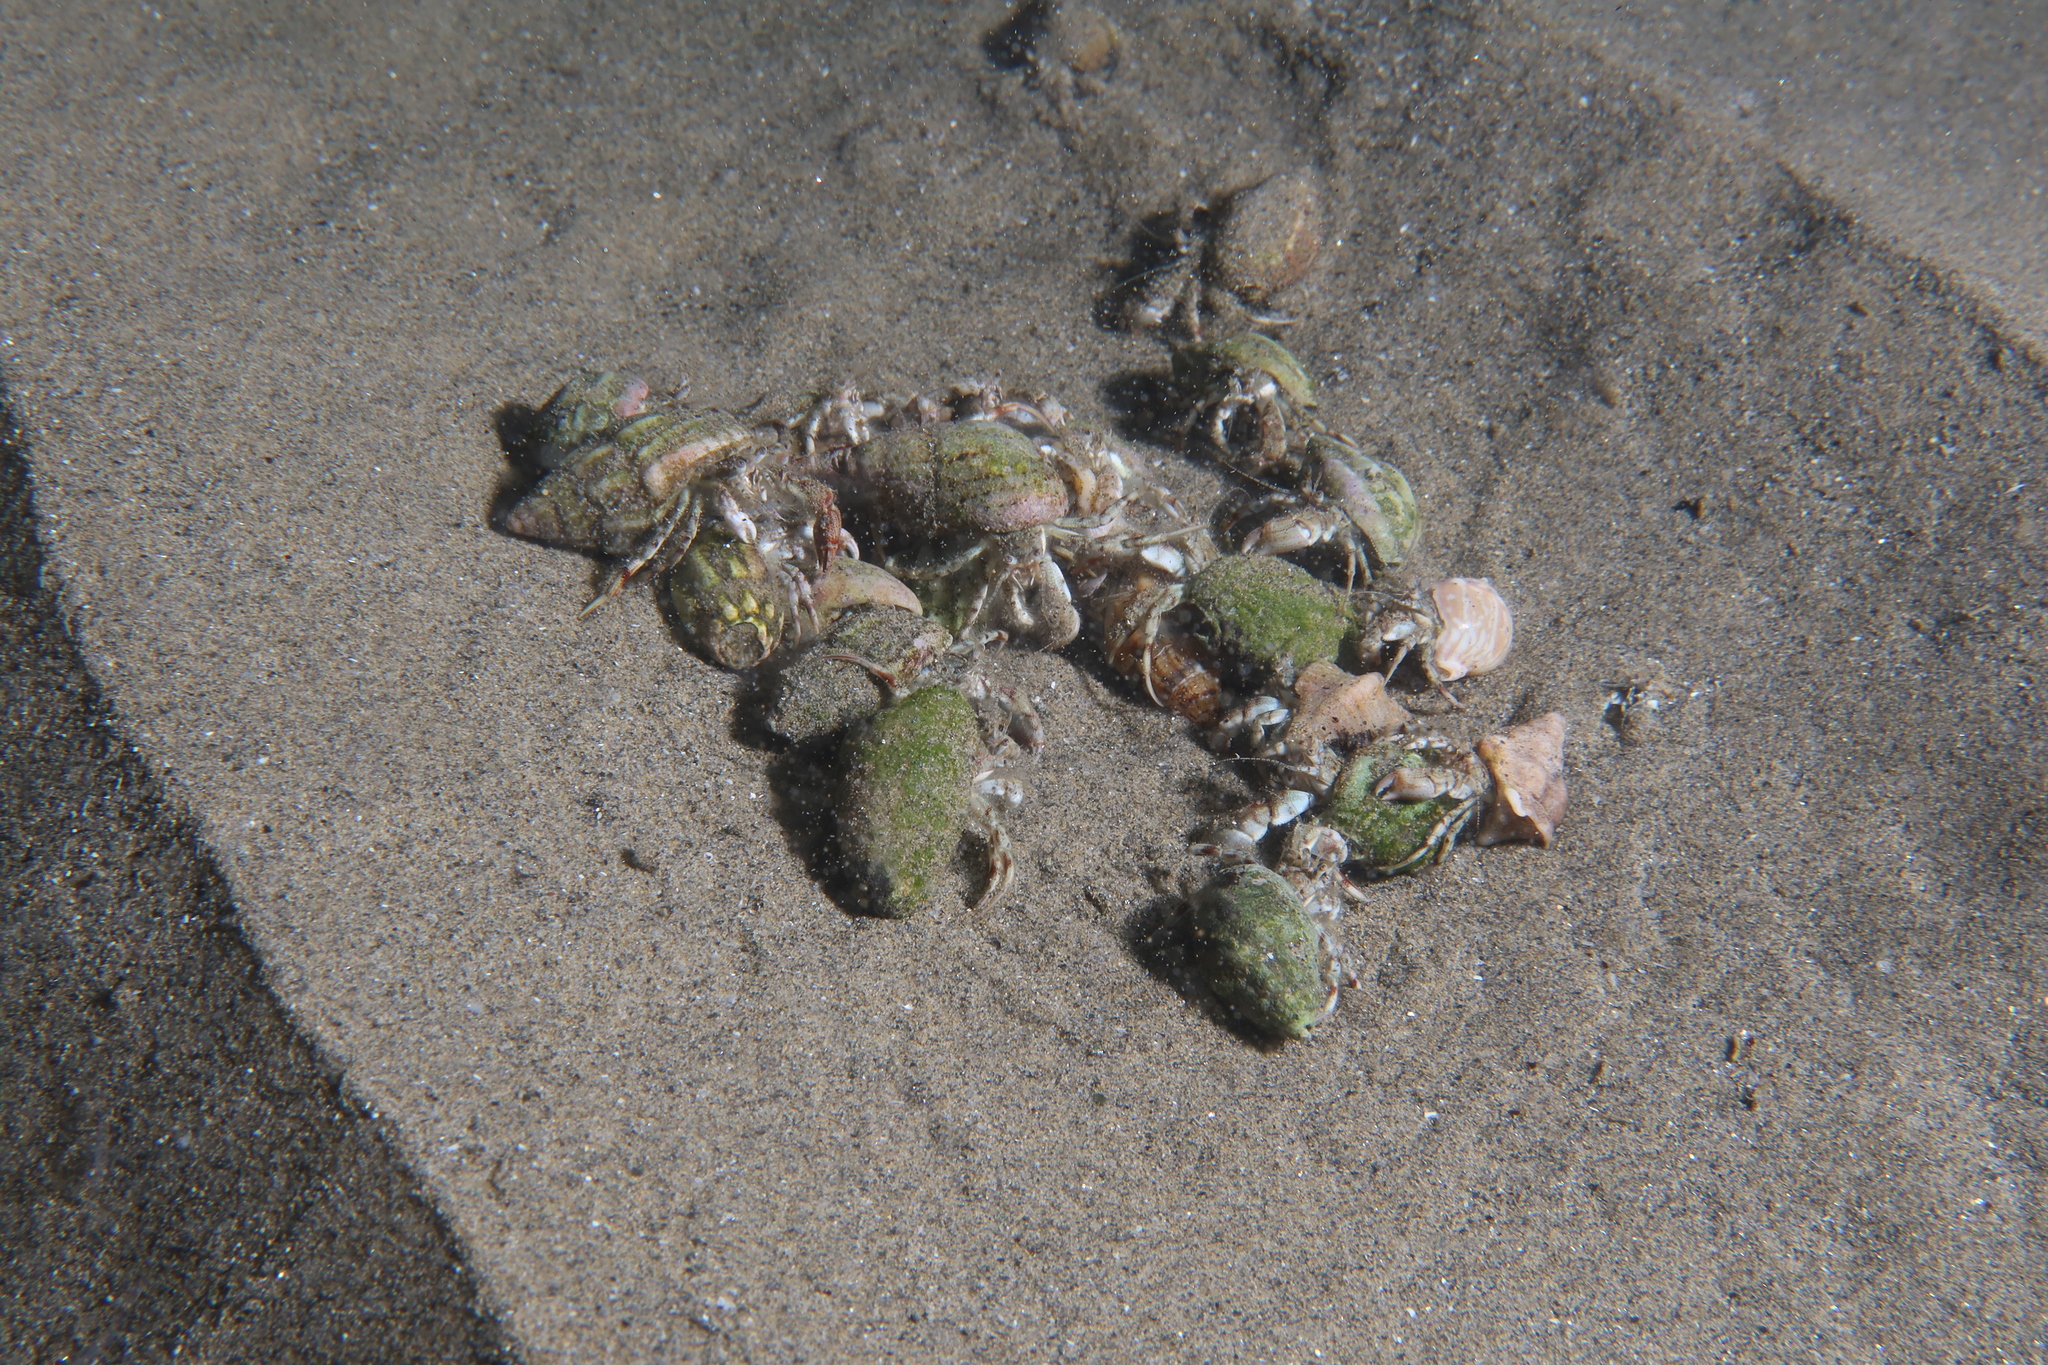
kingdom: Animalia
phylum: Arthropoda
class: Malacostraca
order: Decapoda
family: Diogenidae
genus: Diogenes
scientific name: Diogenes pugilator
